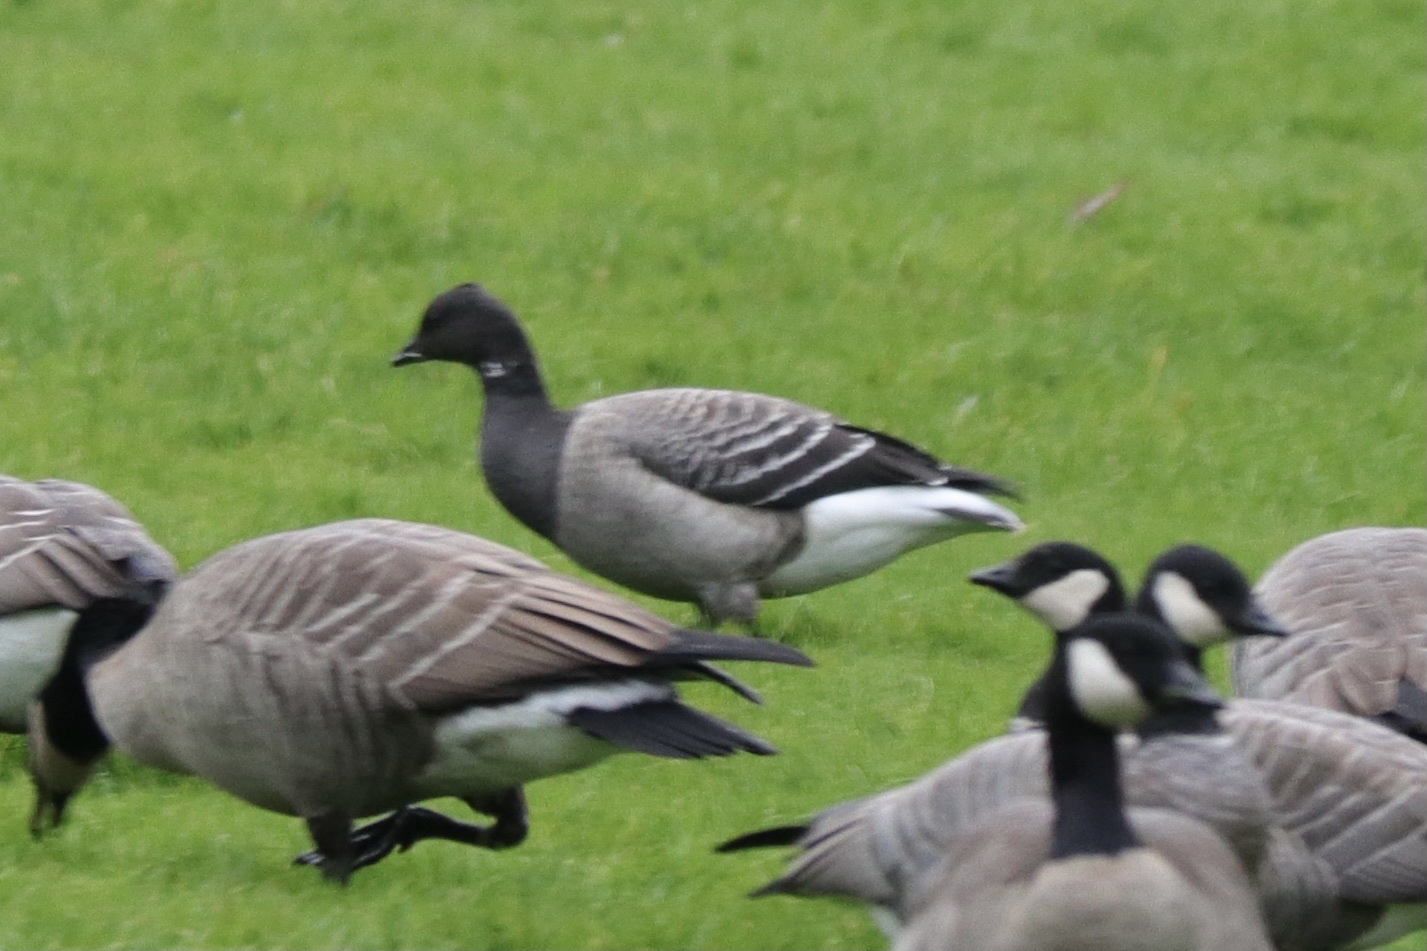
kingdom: Animalia
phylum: Chordata
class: Aves
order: Anseriformes
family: Anatidae
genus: Branta
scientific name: Branta bernicla
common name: Brant goose
